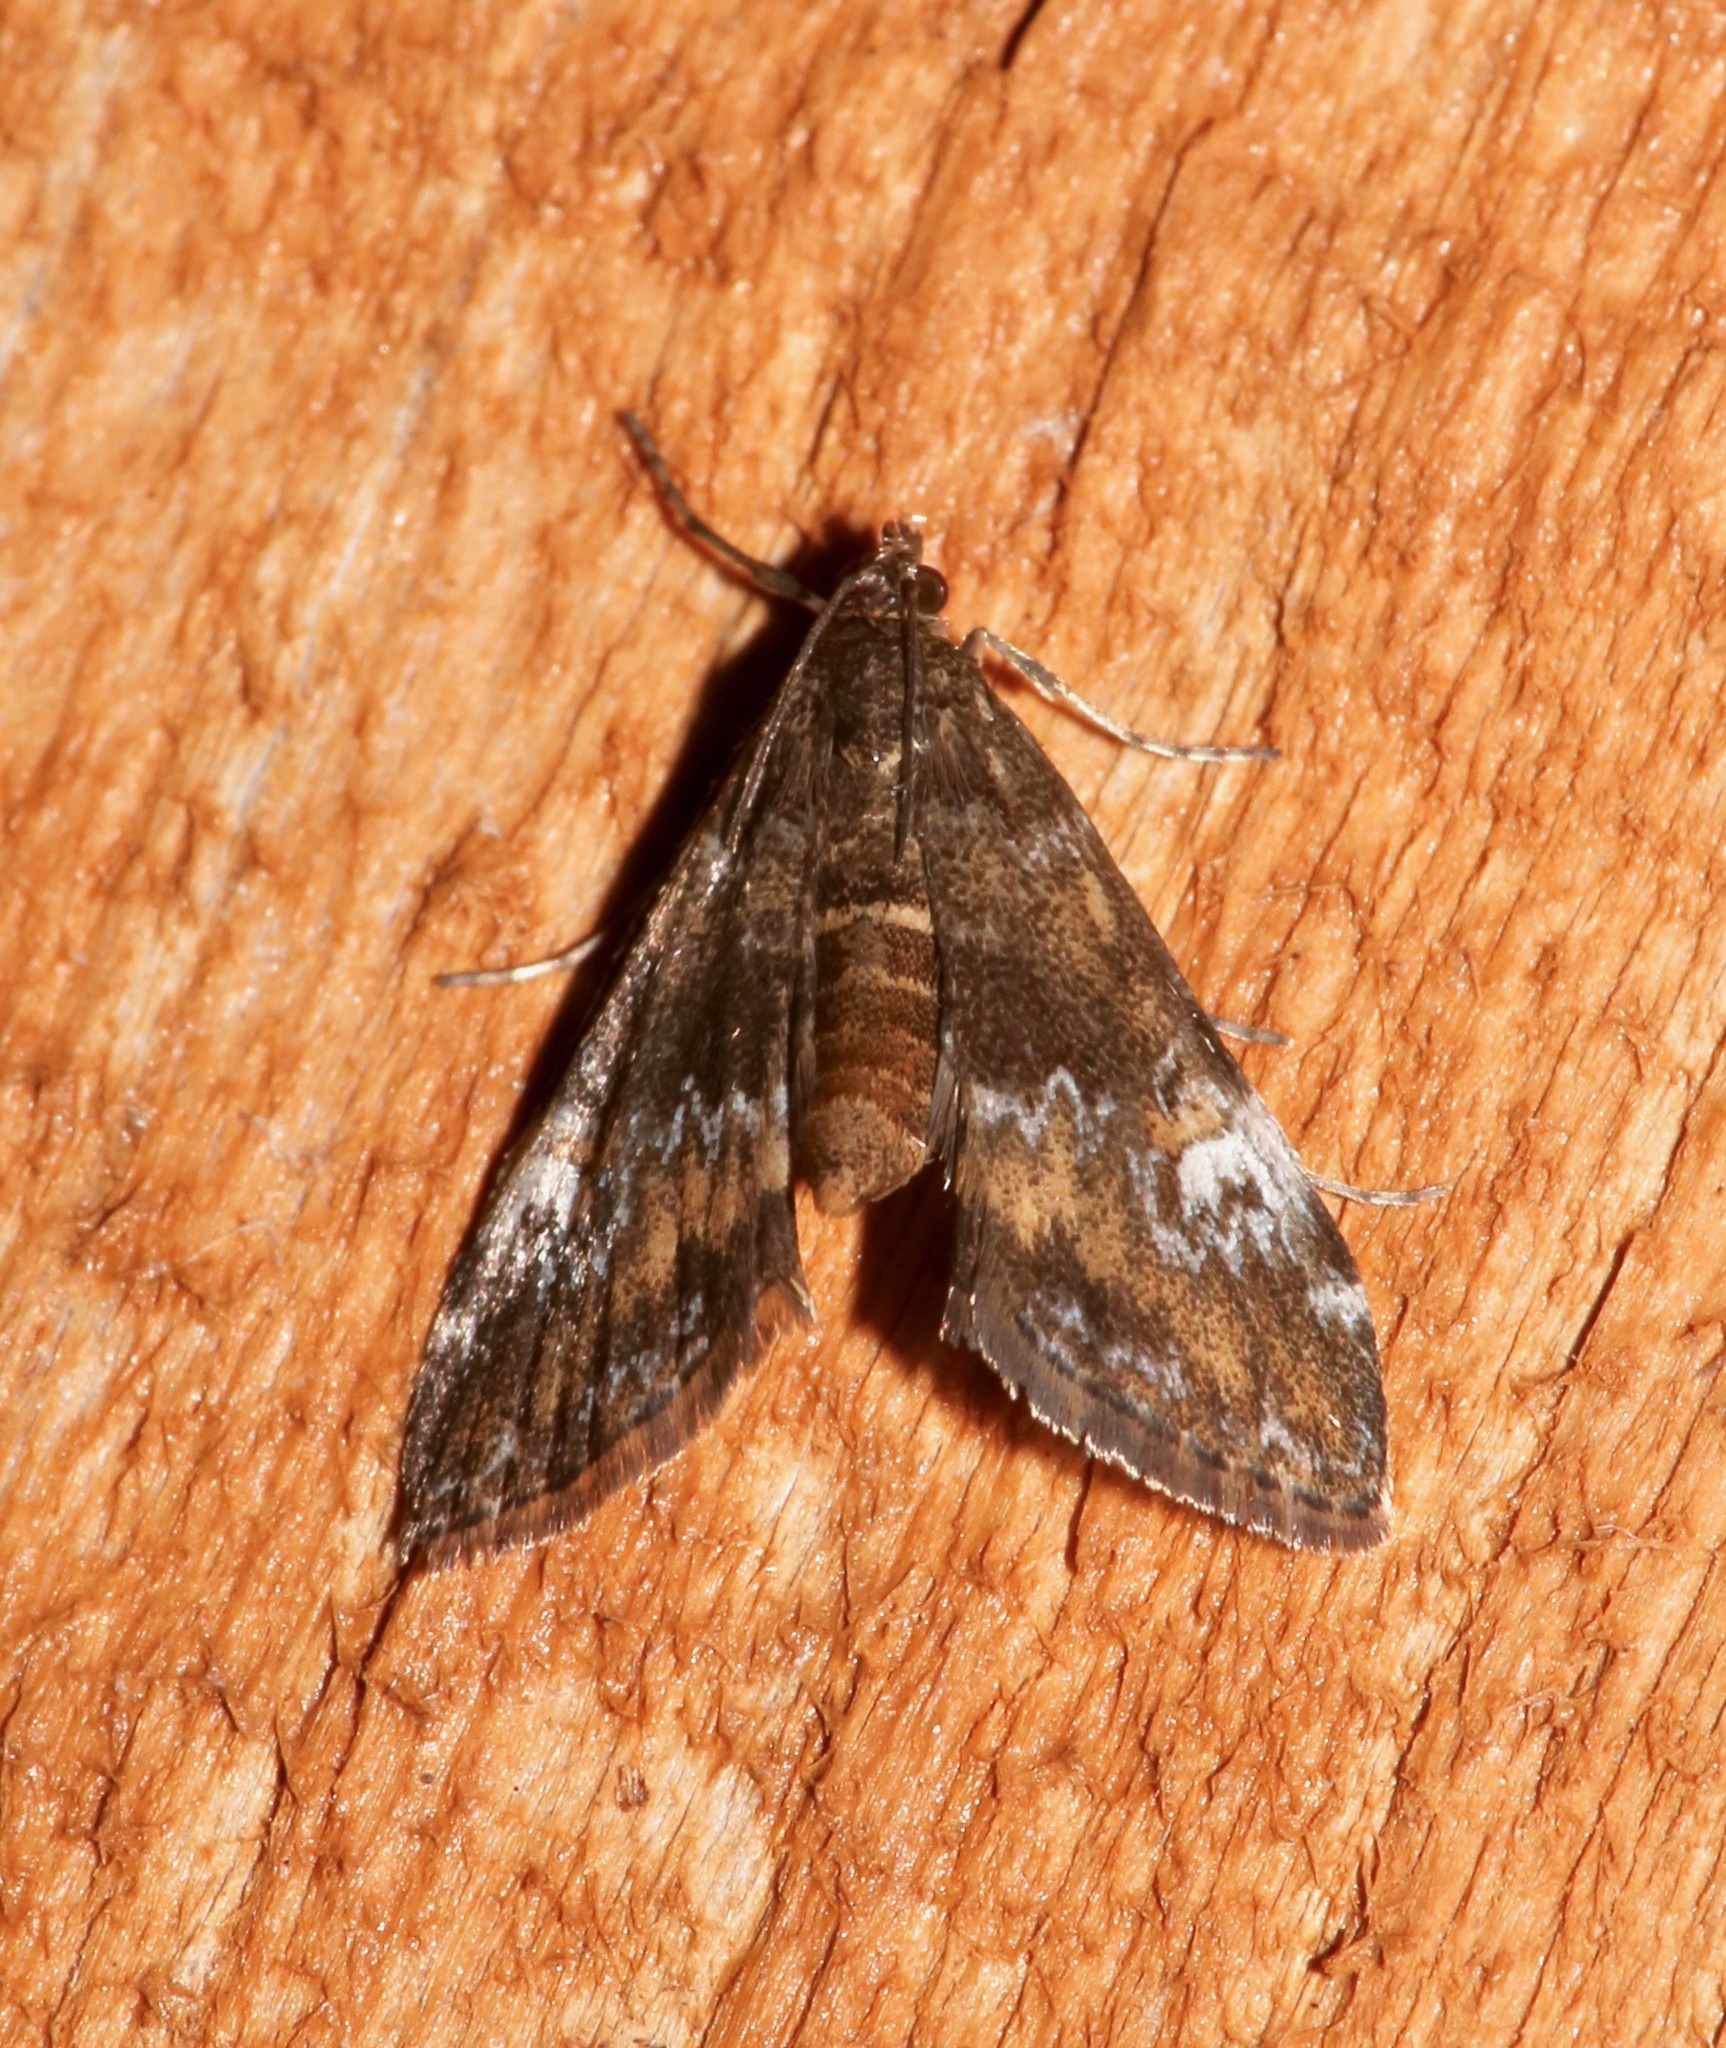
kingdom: Animalia
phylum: Arthropoda
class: Insecta
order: Lepidoptera
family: Crambidae
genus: Elophila
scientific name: Elophila obliteralis
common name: Waterlily leafcutter moth
